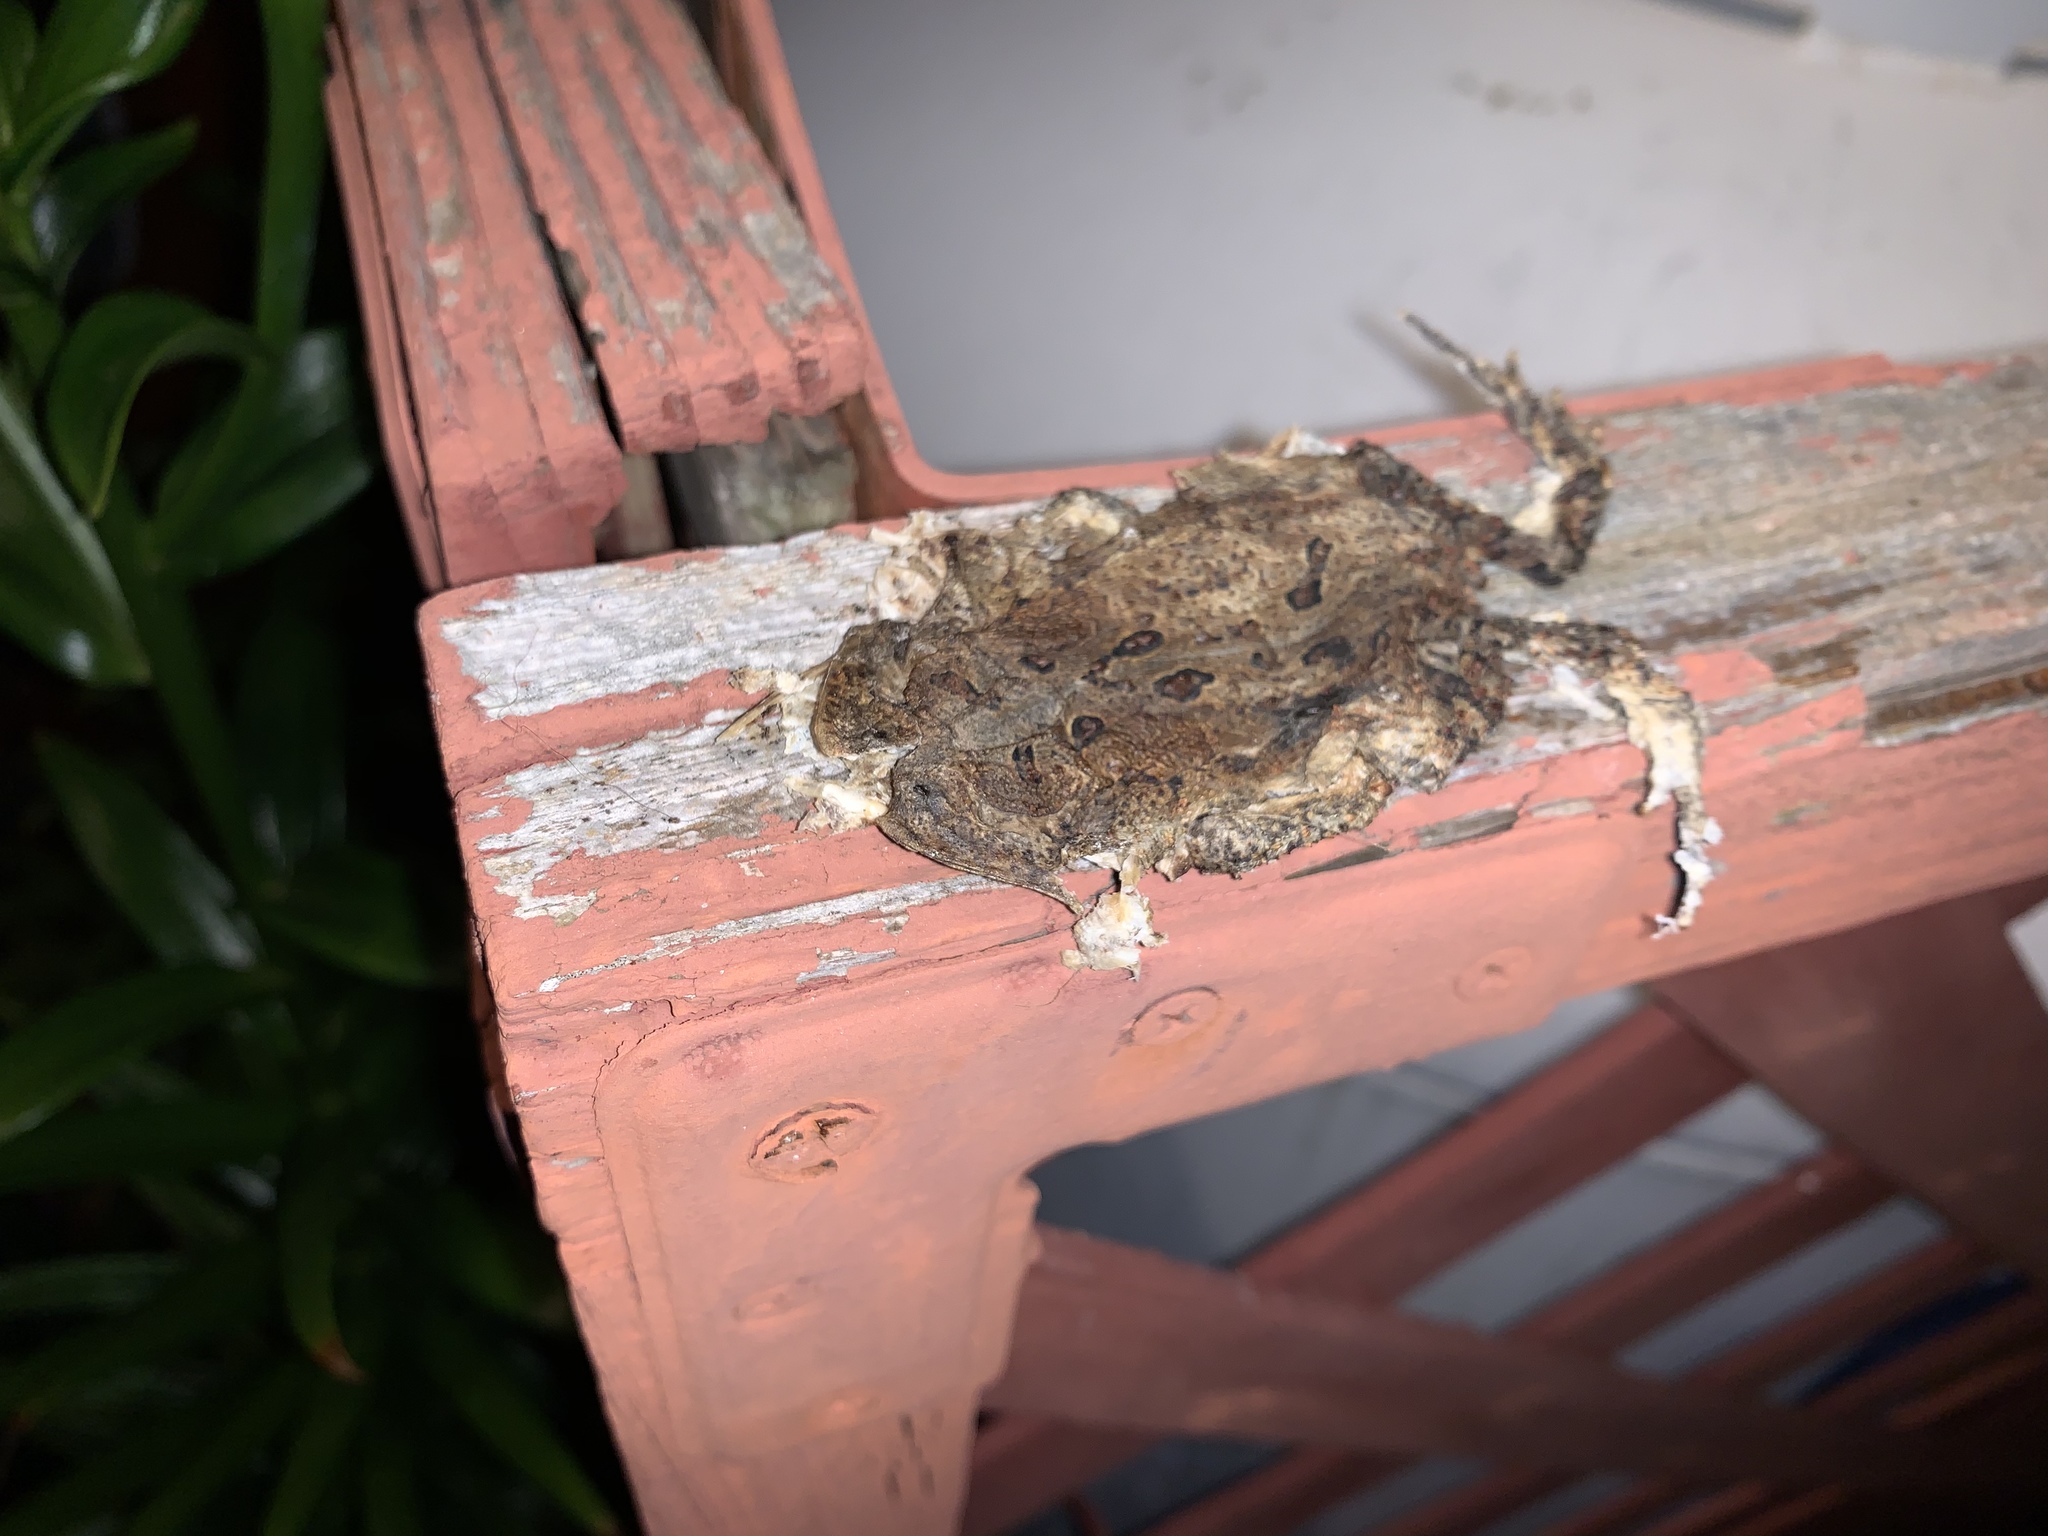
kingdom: Animalia
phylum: Chordata
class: Amphibia
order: Anura
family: Bufonidae
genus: Anaxyrus
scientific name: Anaxyrus americanus
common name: American toad
